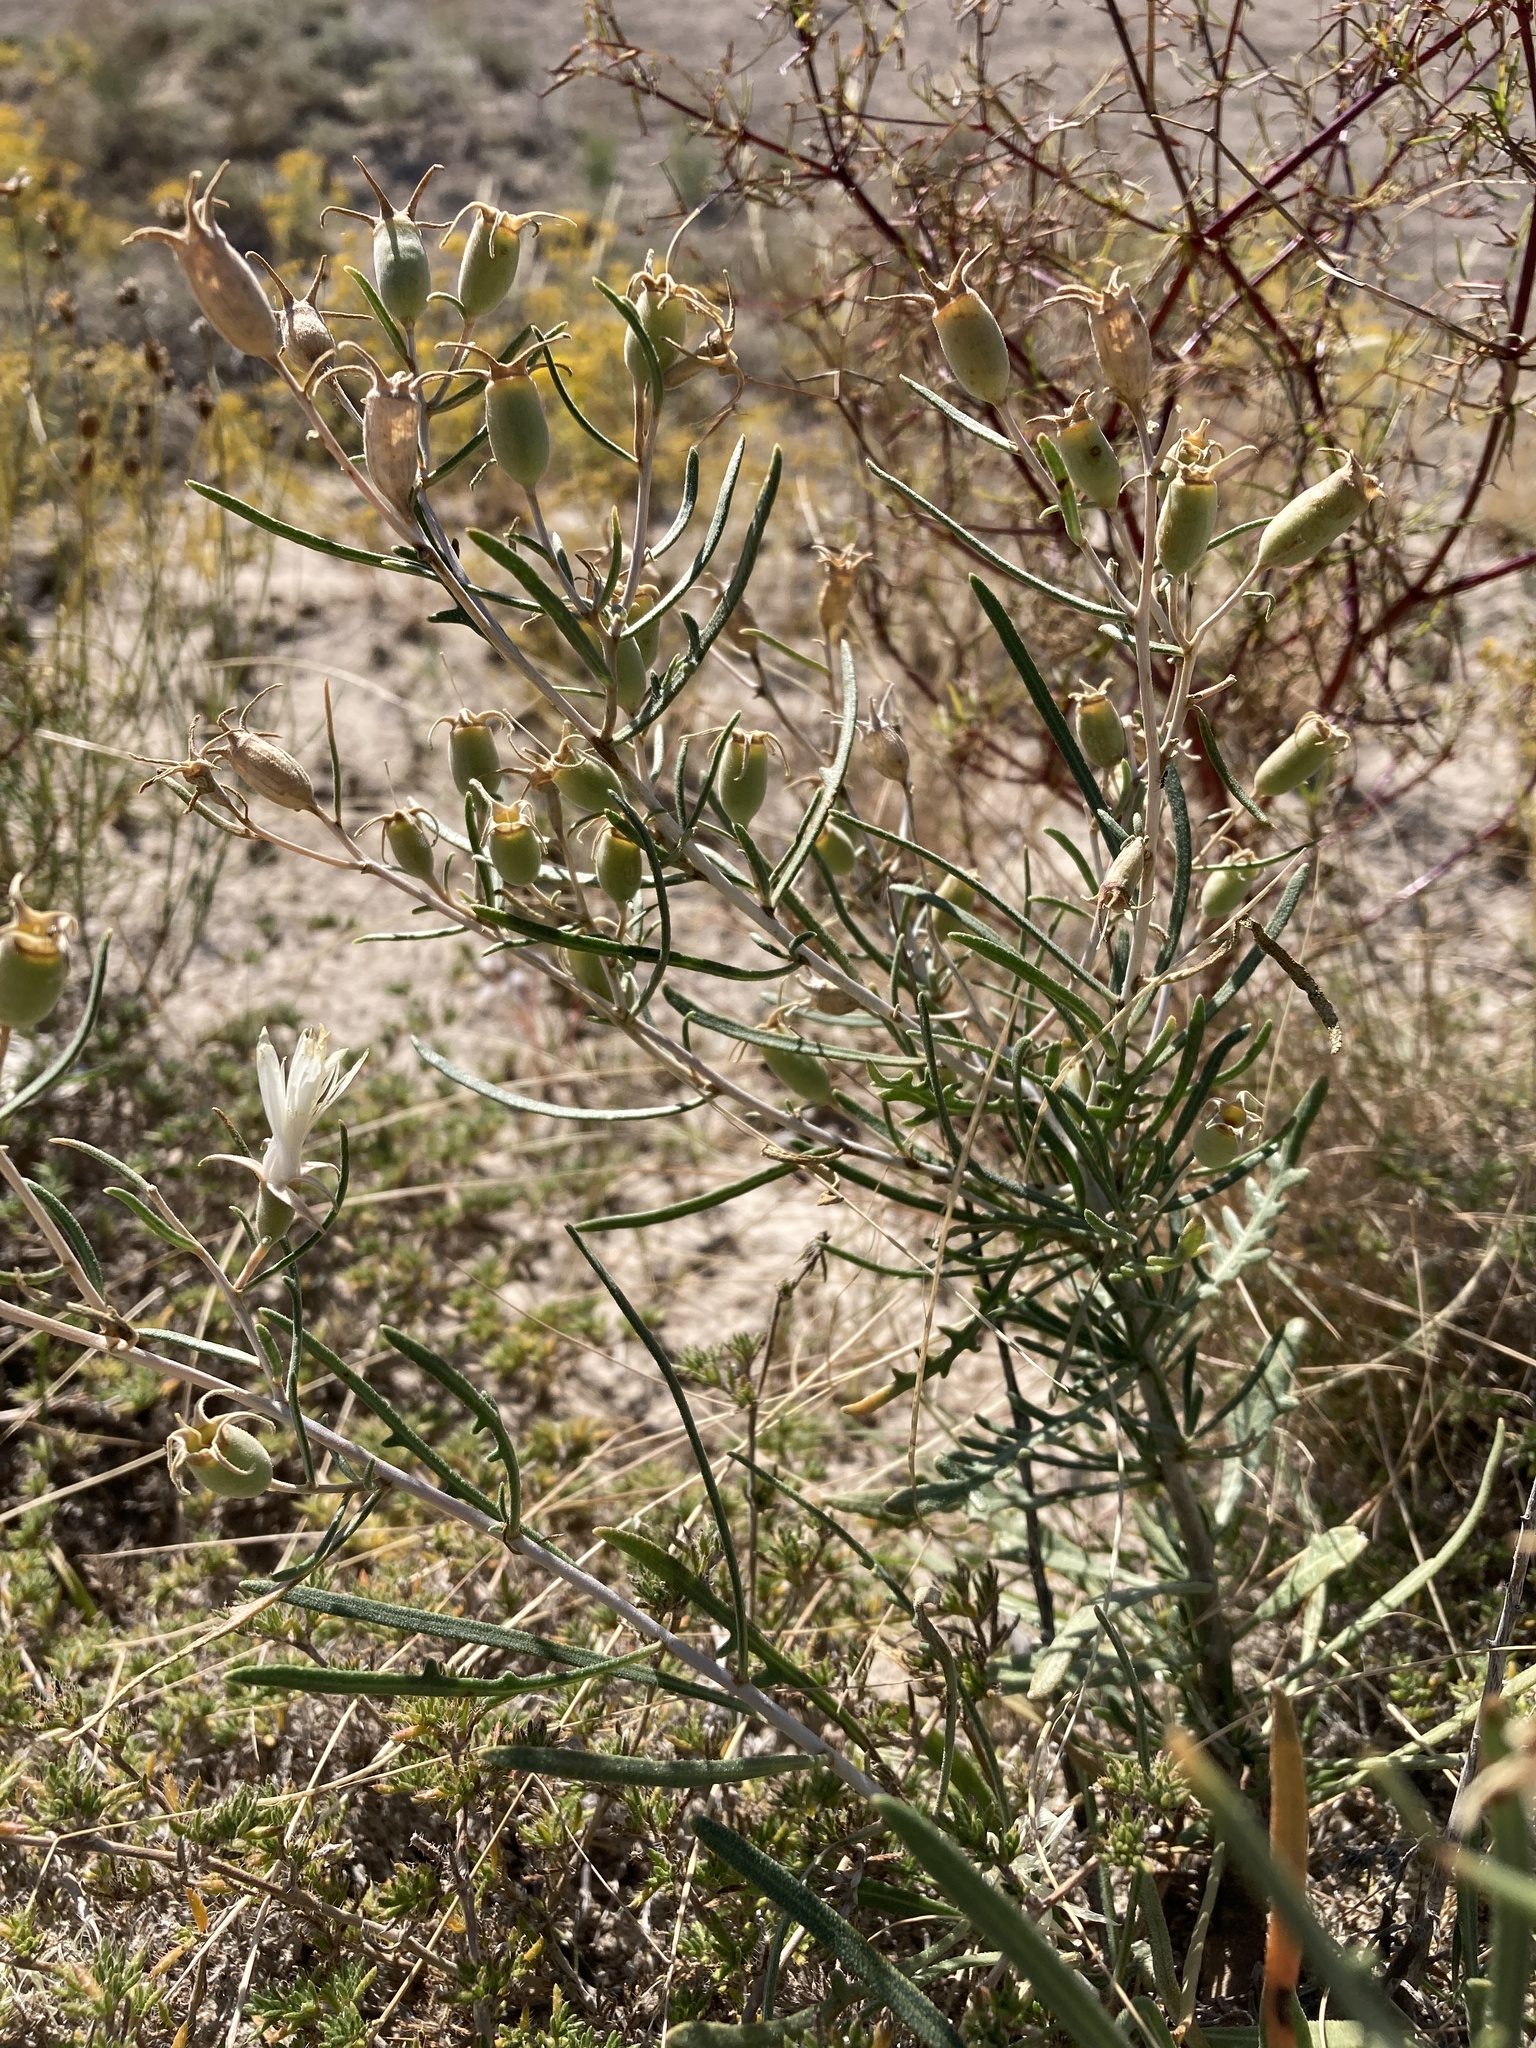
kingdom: Plantae
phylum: Tracheophyta
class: Magnoliopsida
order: Cornales
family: Loasaceae
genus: Mentzelia
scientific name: Mentzelia humilis
